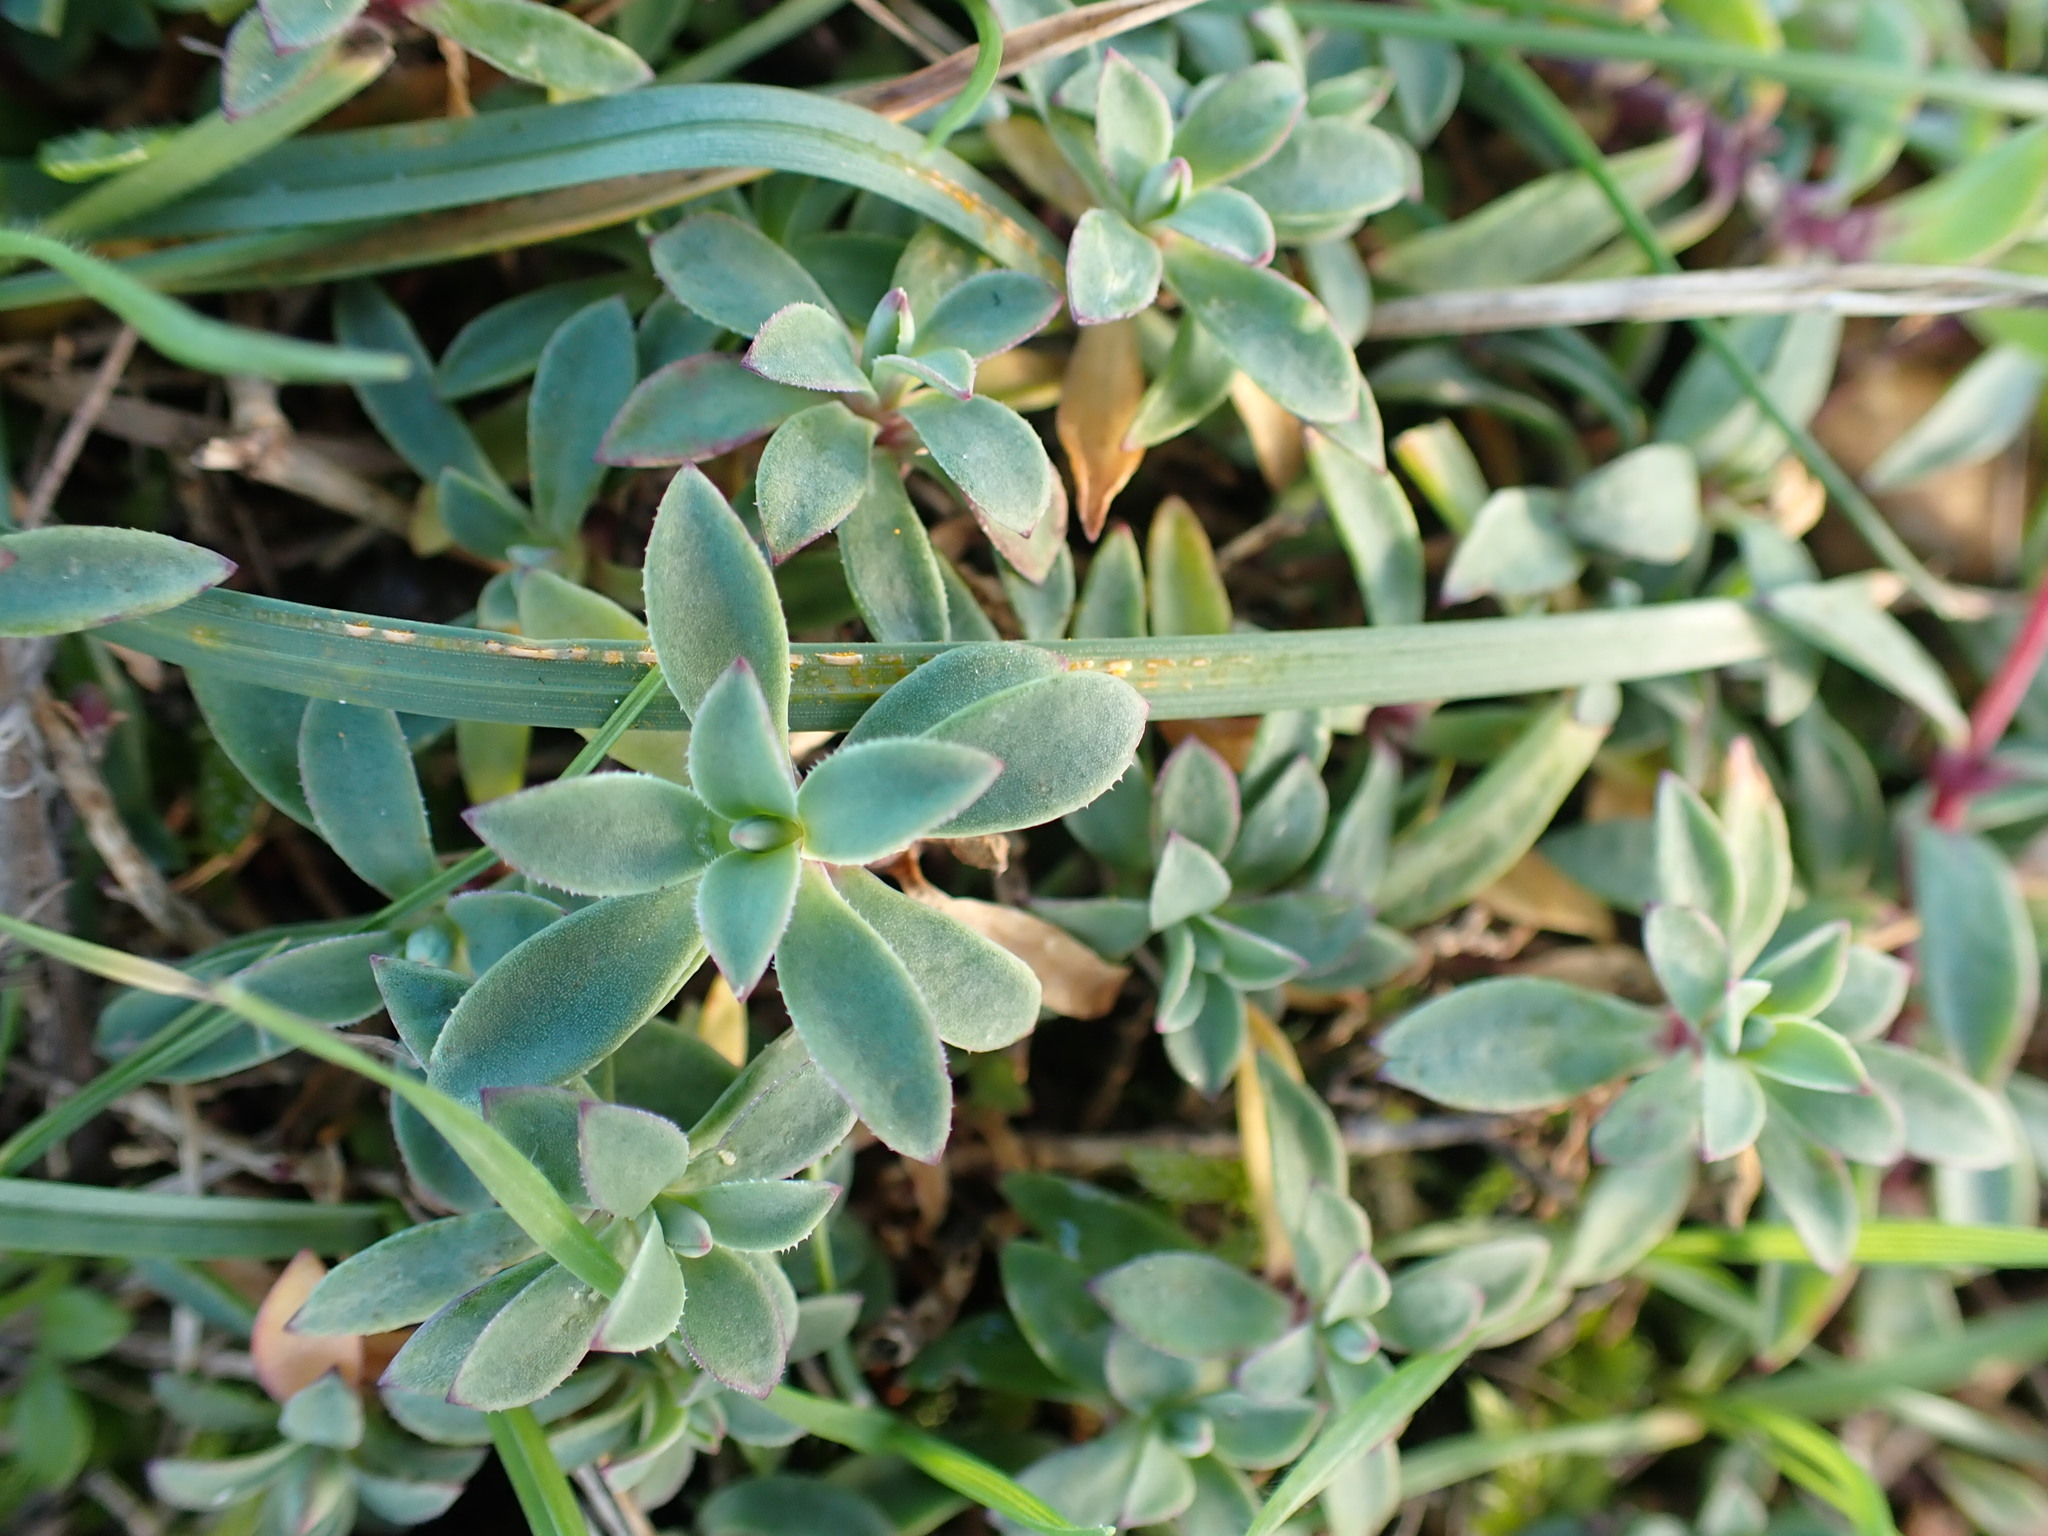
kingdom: Plantae
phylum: Tracheophyta
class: Magnoliopsida
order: Caryophyllales
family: Caryophyllaceae
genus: Silene
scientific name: Silene uniflora
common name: Sea campion
